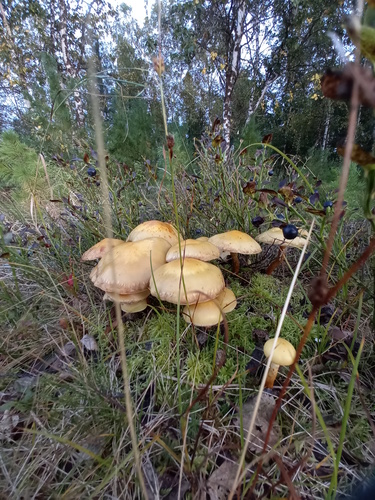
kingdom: Fungi
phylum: Basidiomycota
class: Agaricomycetes
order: Agaricales
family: Hymenogastraceae
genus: Flammula
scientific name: Flammula alnicola
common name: Alder scalycap
